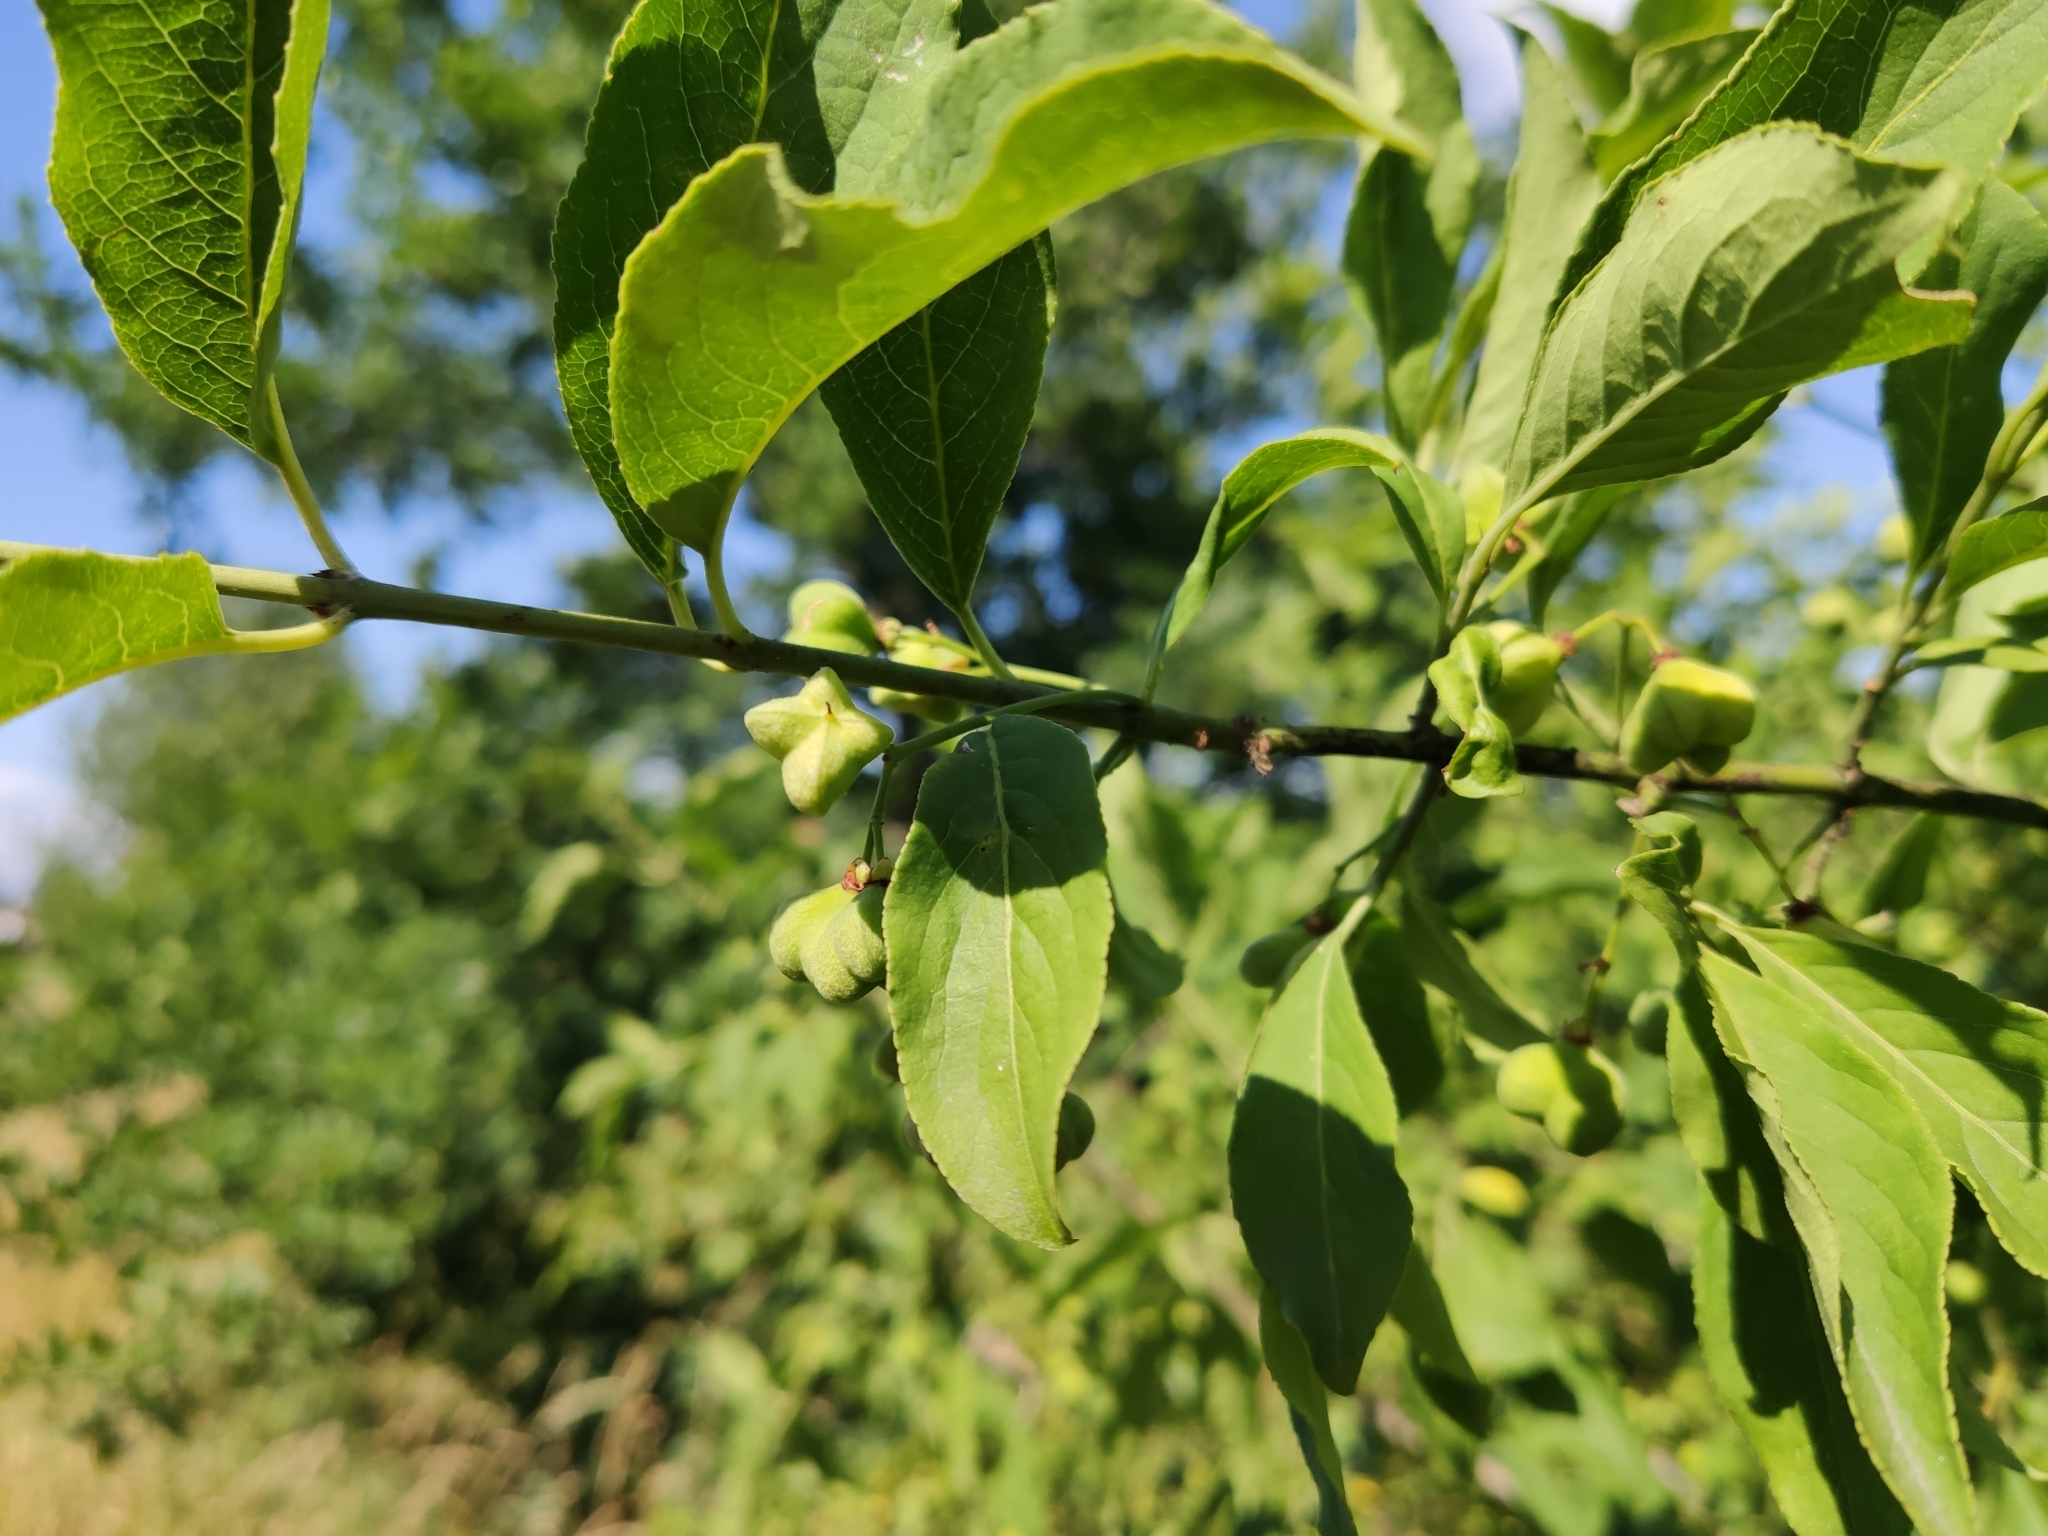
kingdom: Plantae
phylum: Tracheophyta
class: Magnoliopsida
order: Celastrales
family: Celastraceae
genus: Euonymus
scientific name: Euonymus europaeus
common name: Spindle
